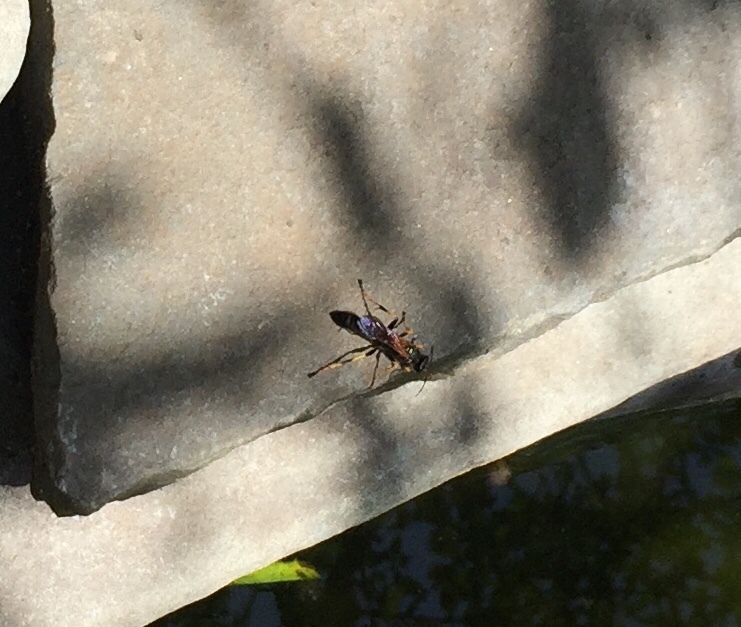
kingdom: Animalia
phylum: Arthropoda
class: Insecta
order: Hymenoptera
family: Sphecidae
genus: Sceliphron
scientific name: Sceliphron caementarium
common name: Mud dauber
